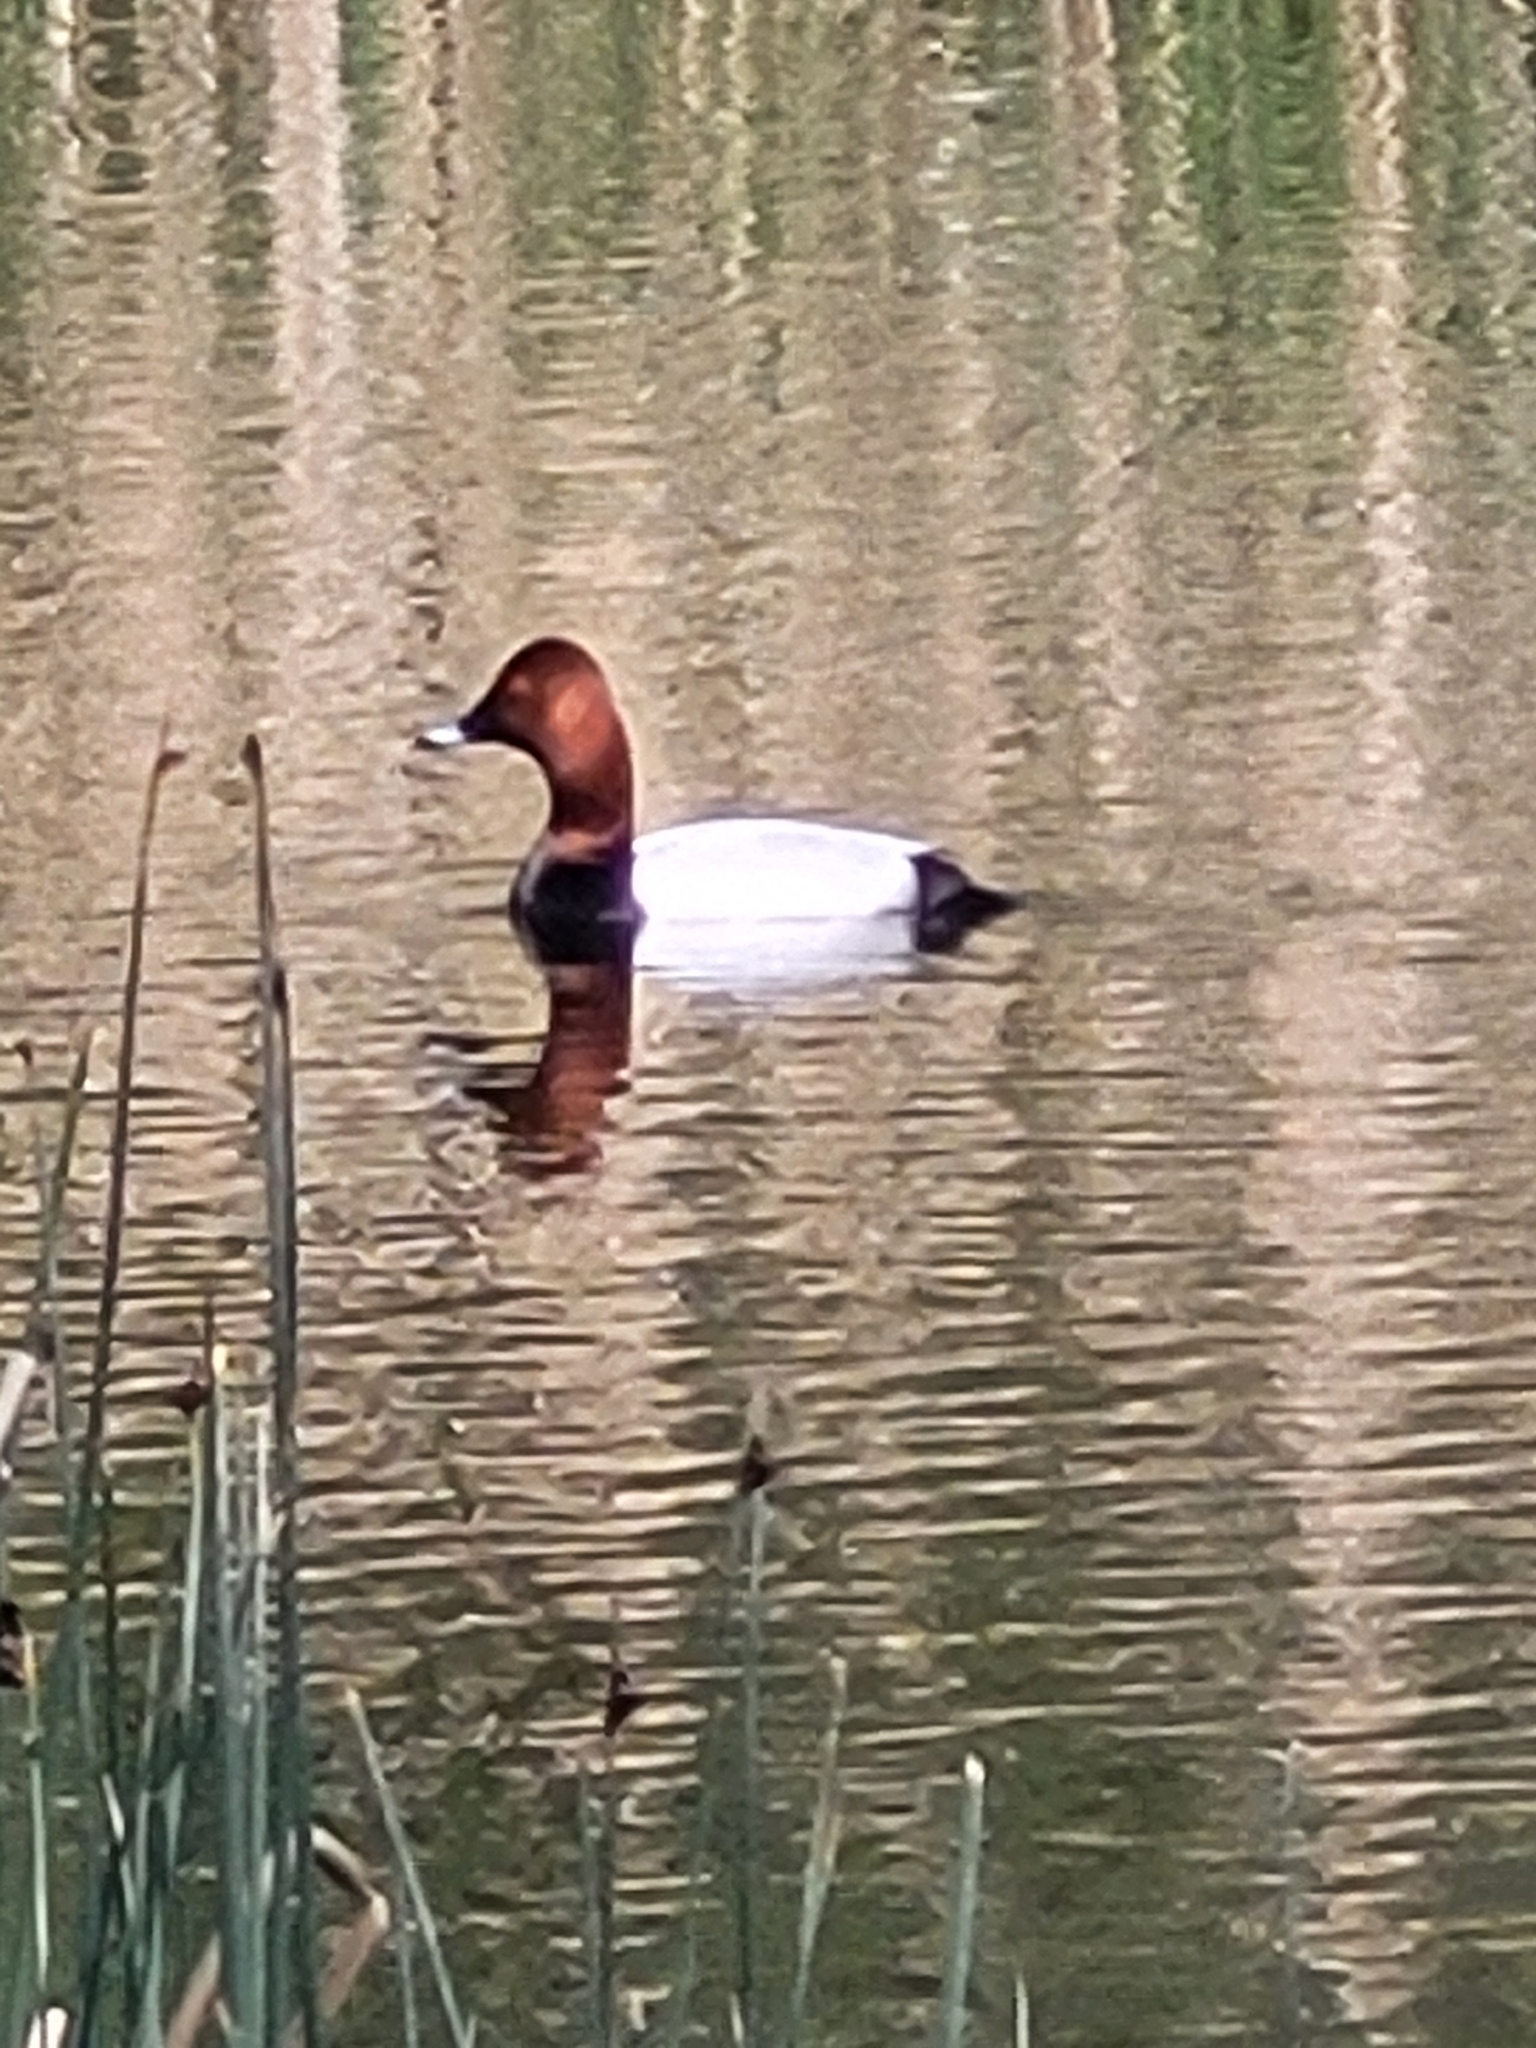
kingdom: Animalia
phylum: Chordata
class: Aves
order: Anseriformes
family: Anatidae
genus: Aythya
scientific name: Aythya ferina
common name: Common pochard
